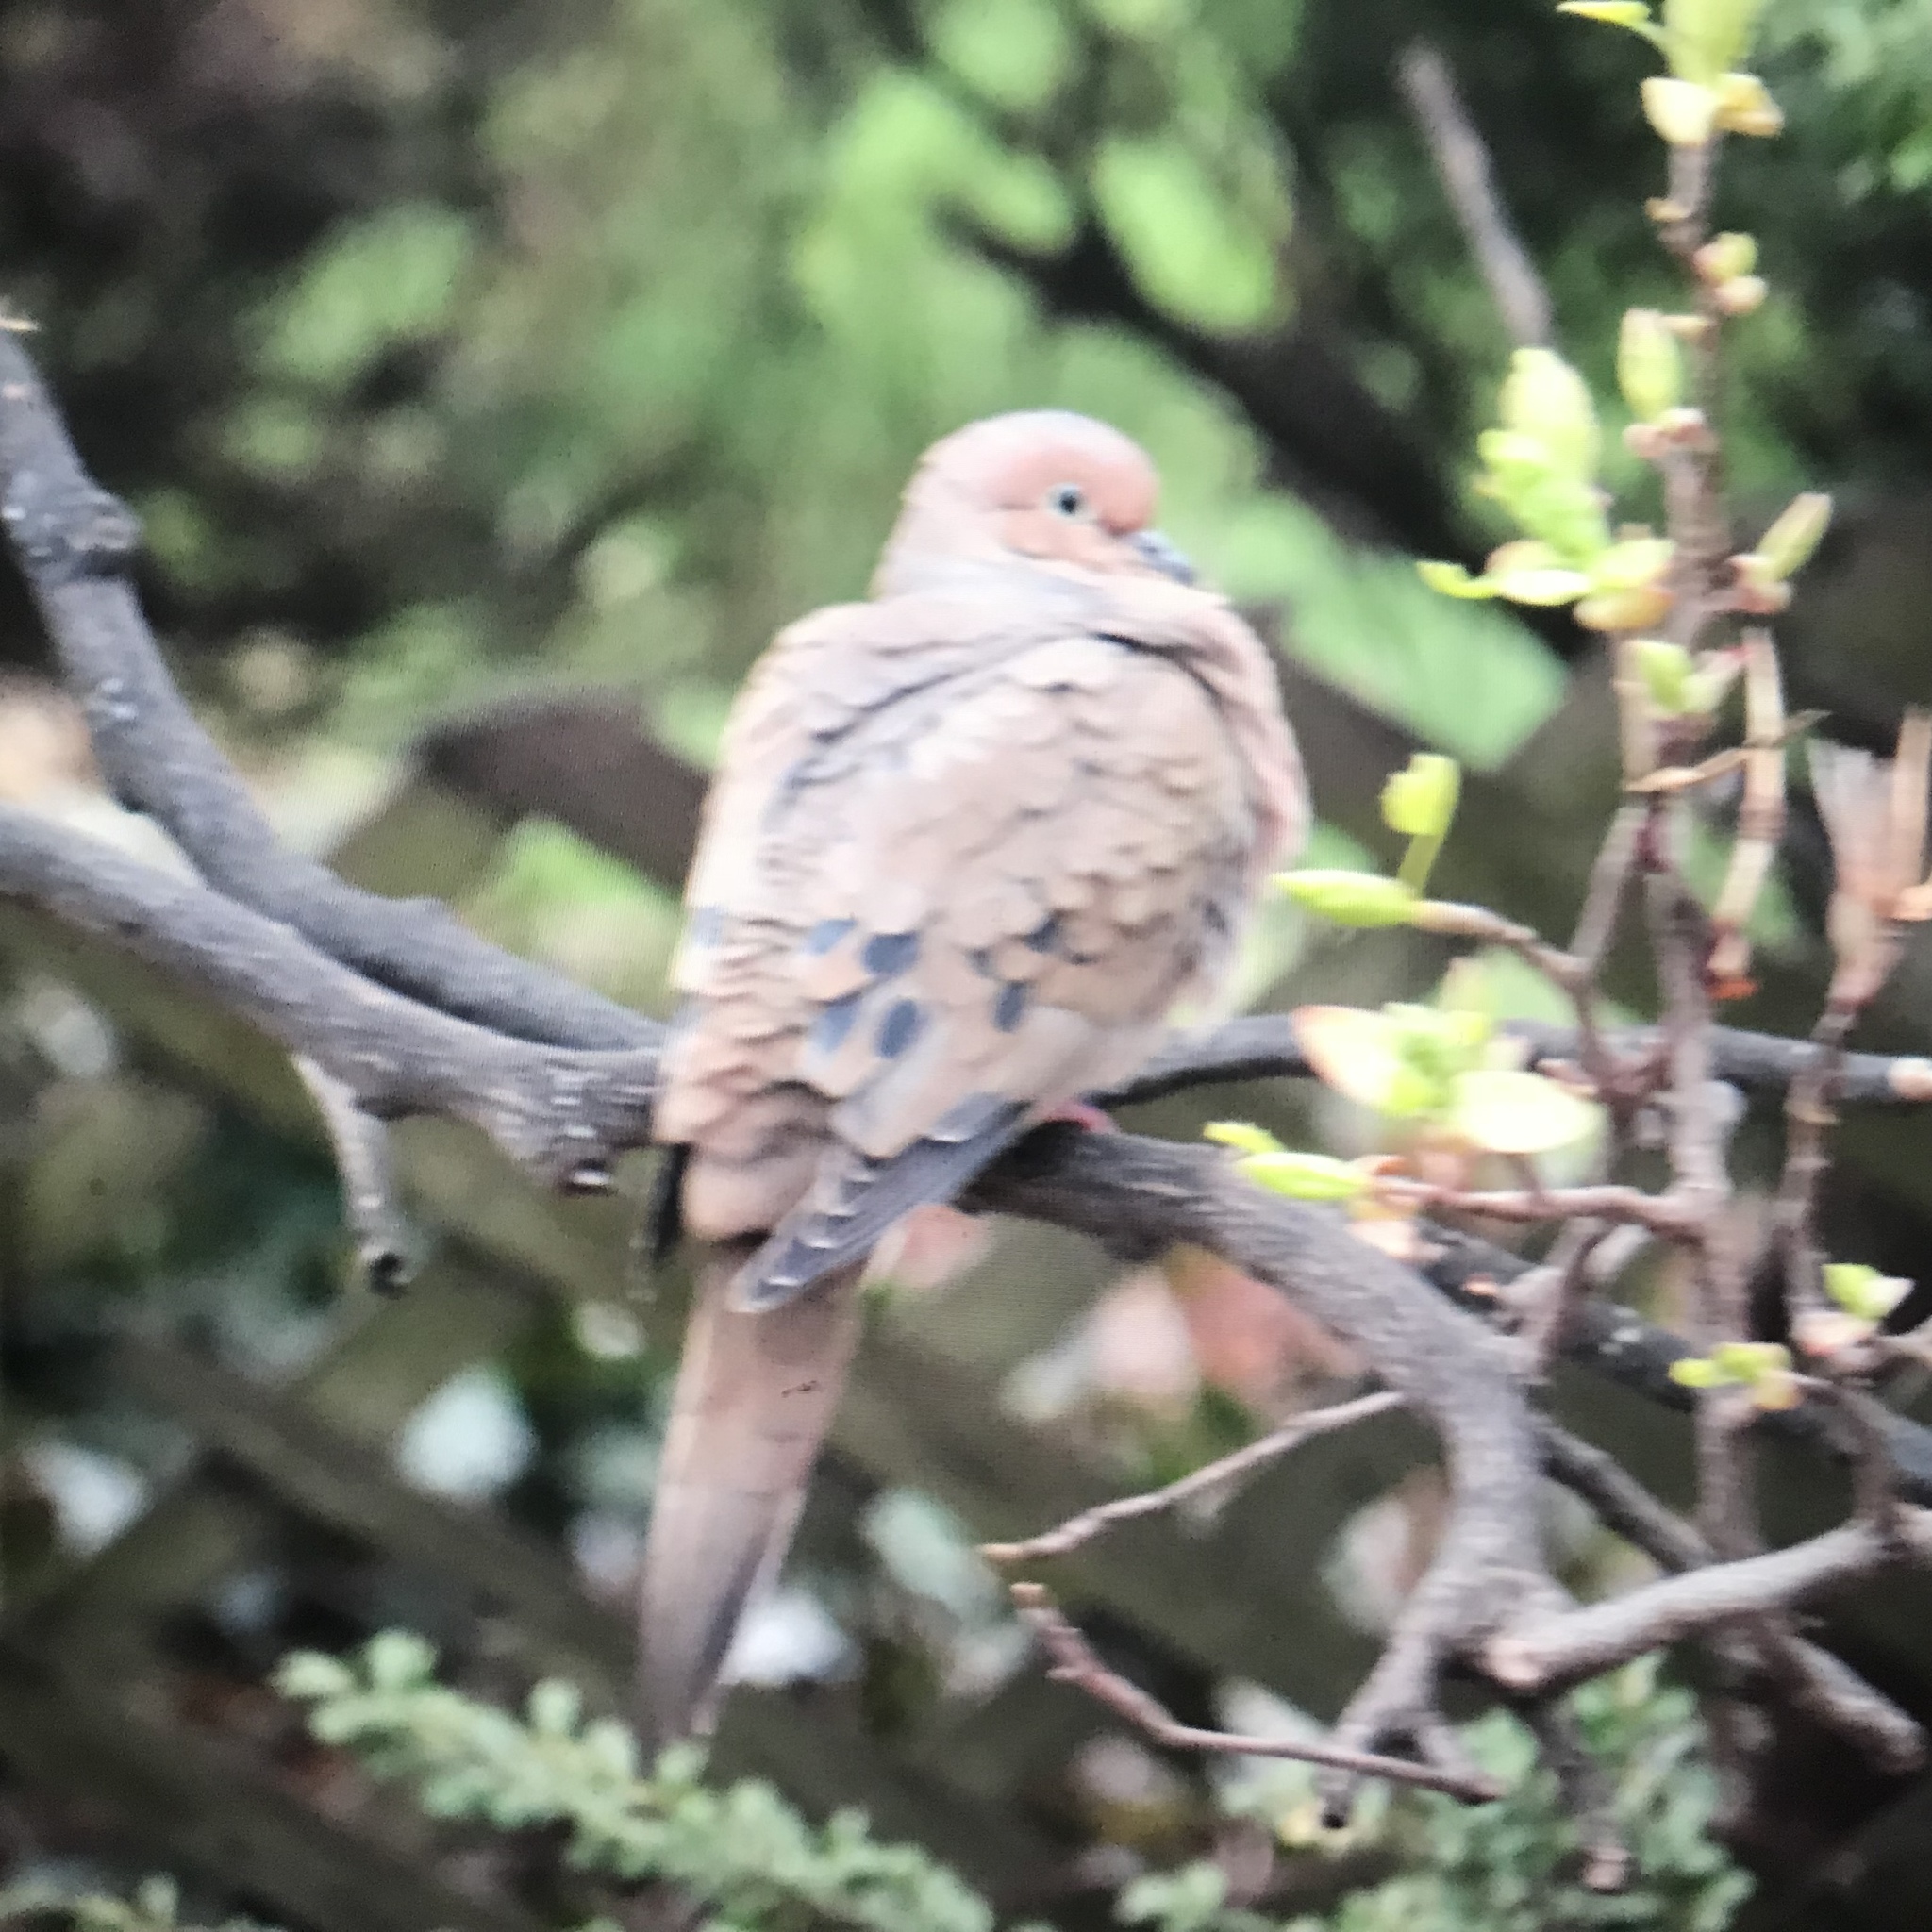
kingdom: Animalia
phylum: Chordata
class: Aves
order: Columbiformes
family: Columbidae
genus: Zenaida
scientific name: Zenaida macroura
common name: Mourning dove
